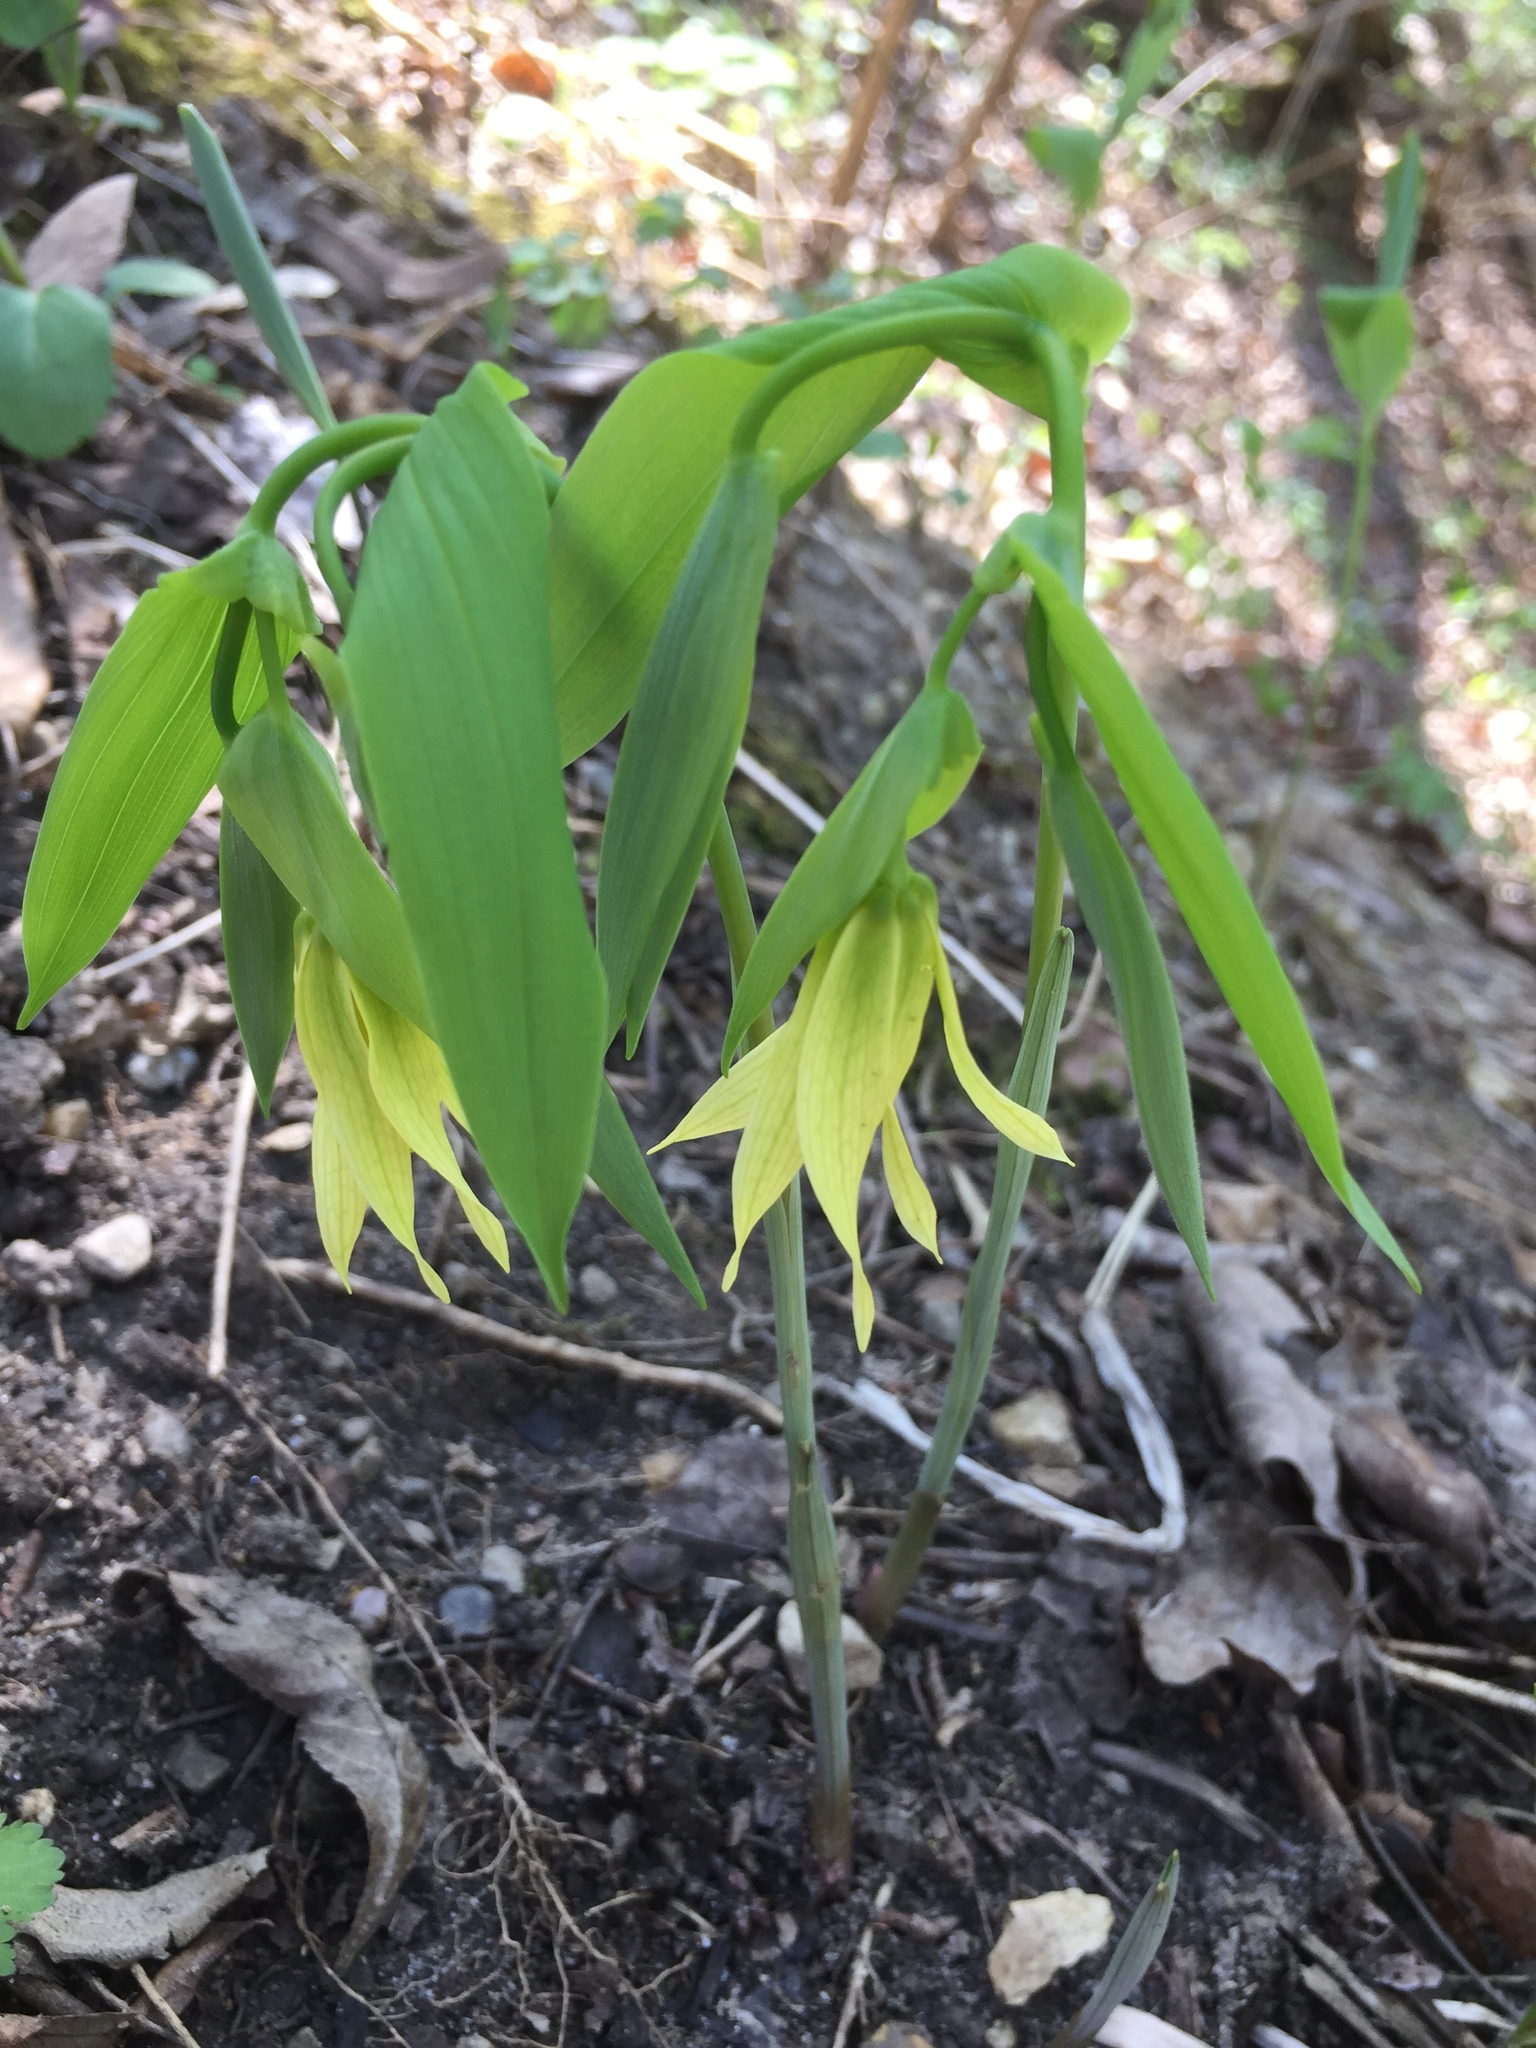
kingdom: Plantae
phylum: Tracheophyta
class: Liliopsida
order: Liliales
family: Colchicaceae
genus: Uvularia
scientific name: Uvularia grandiflora
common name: Bellwort
